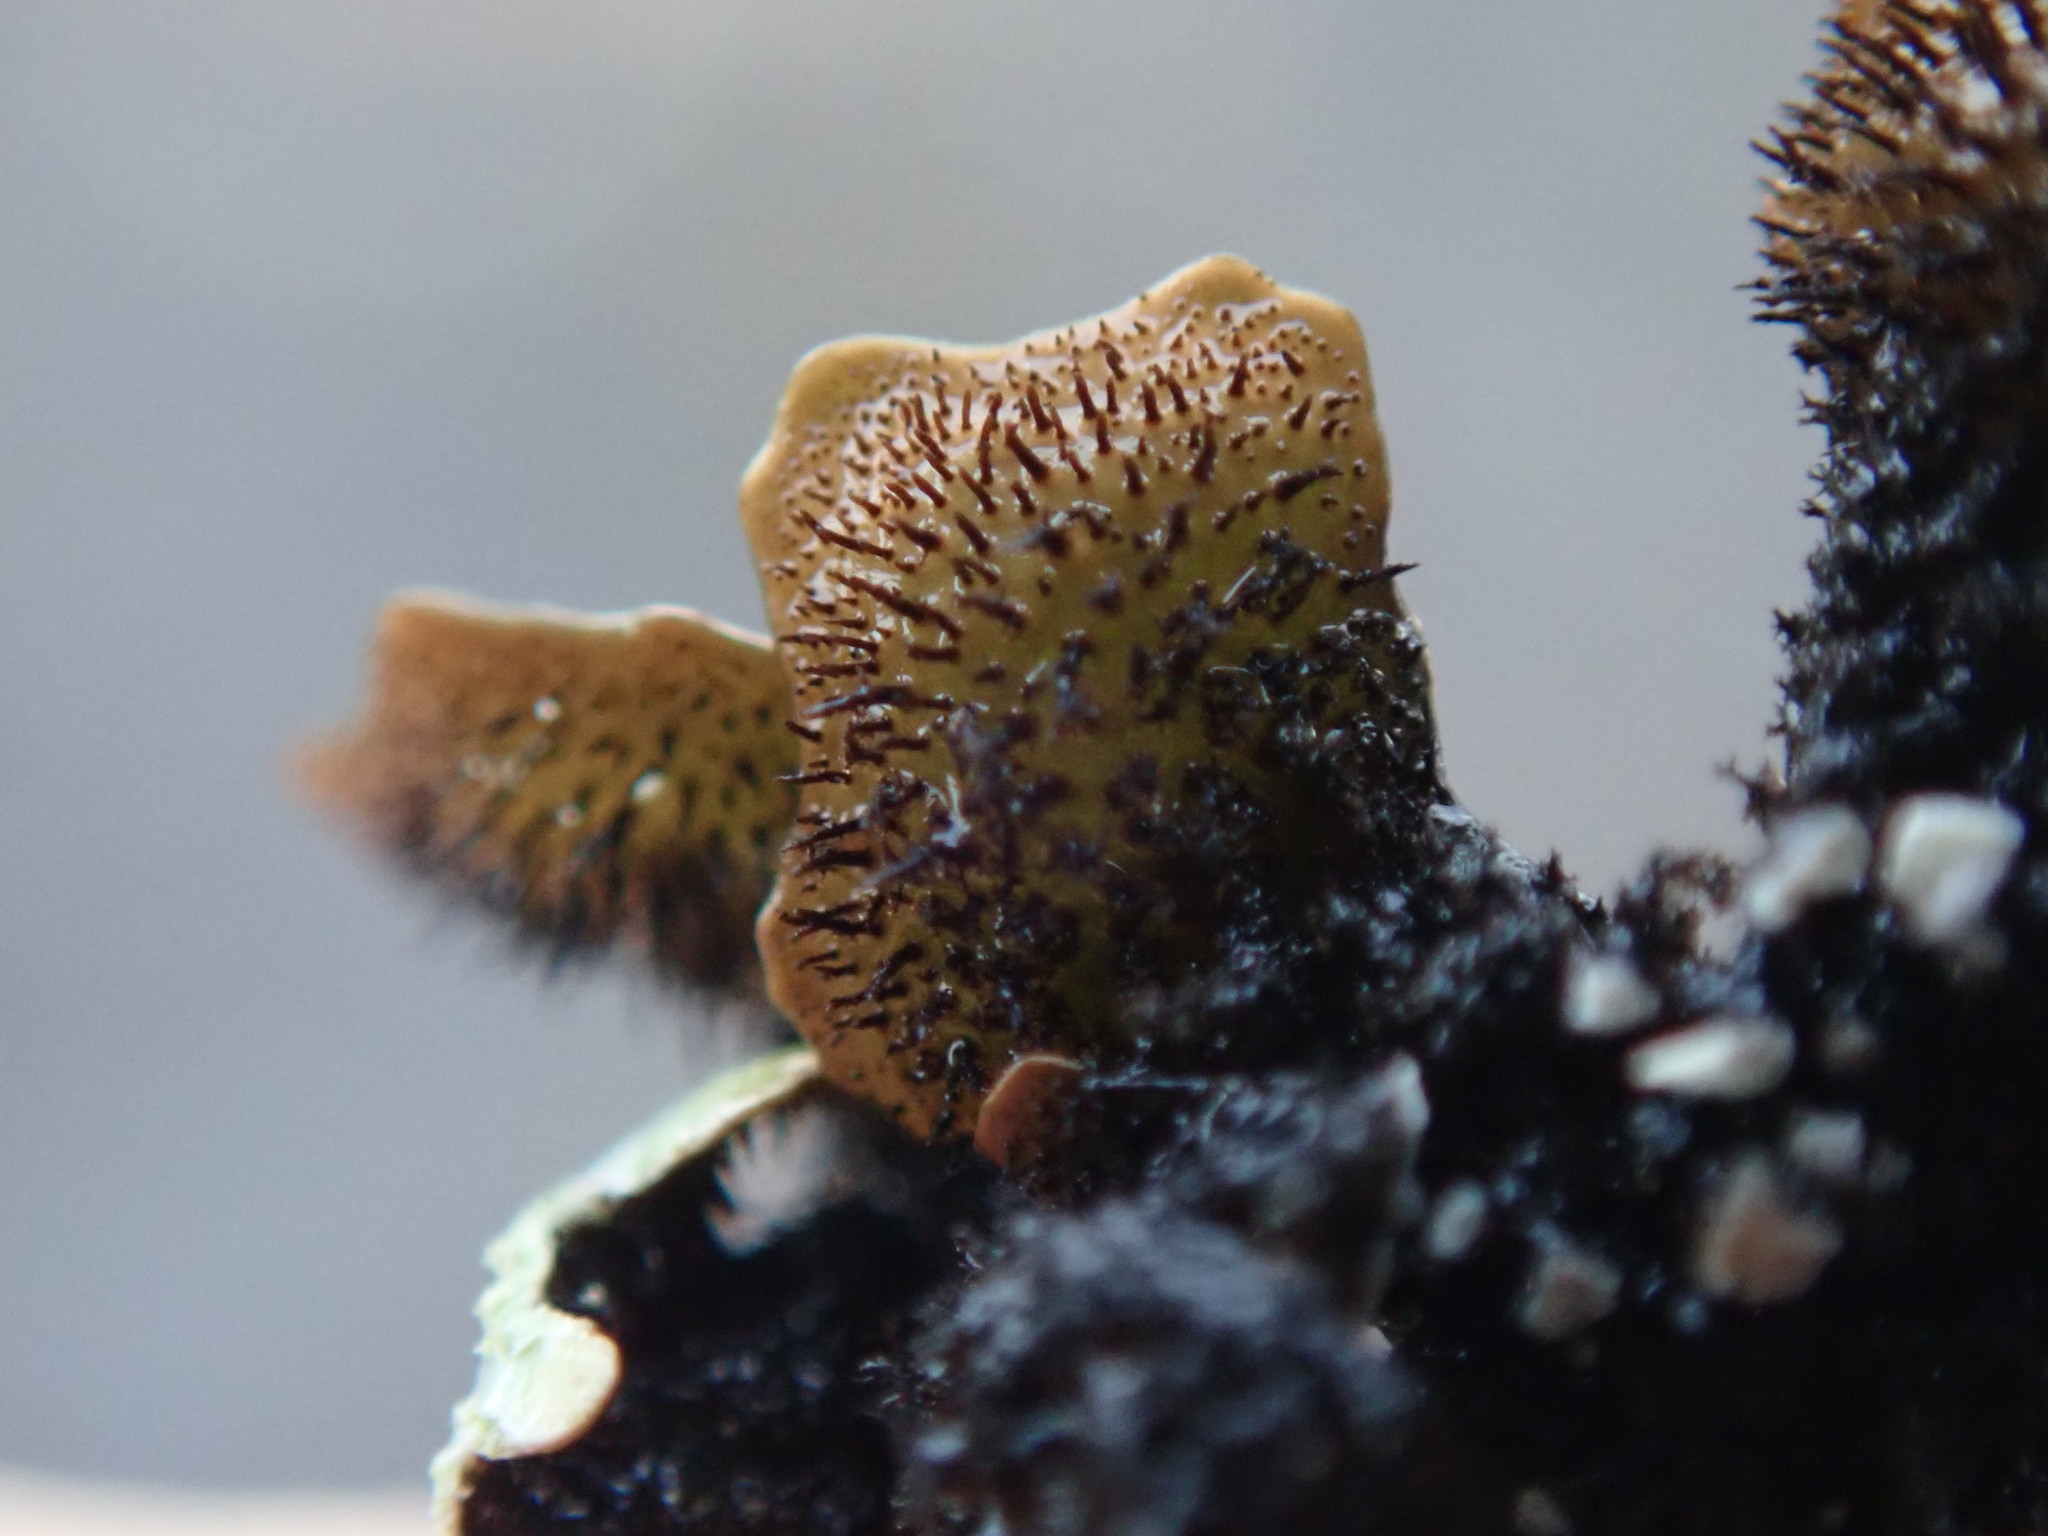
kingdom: Fungi
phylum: Ascomycota
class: Lecanoromycetes
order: Lecanorales
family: Parmeliaceae
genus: Parmelia
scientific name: Parmelia sulcata
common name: Netted shield lichen
